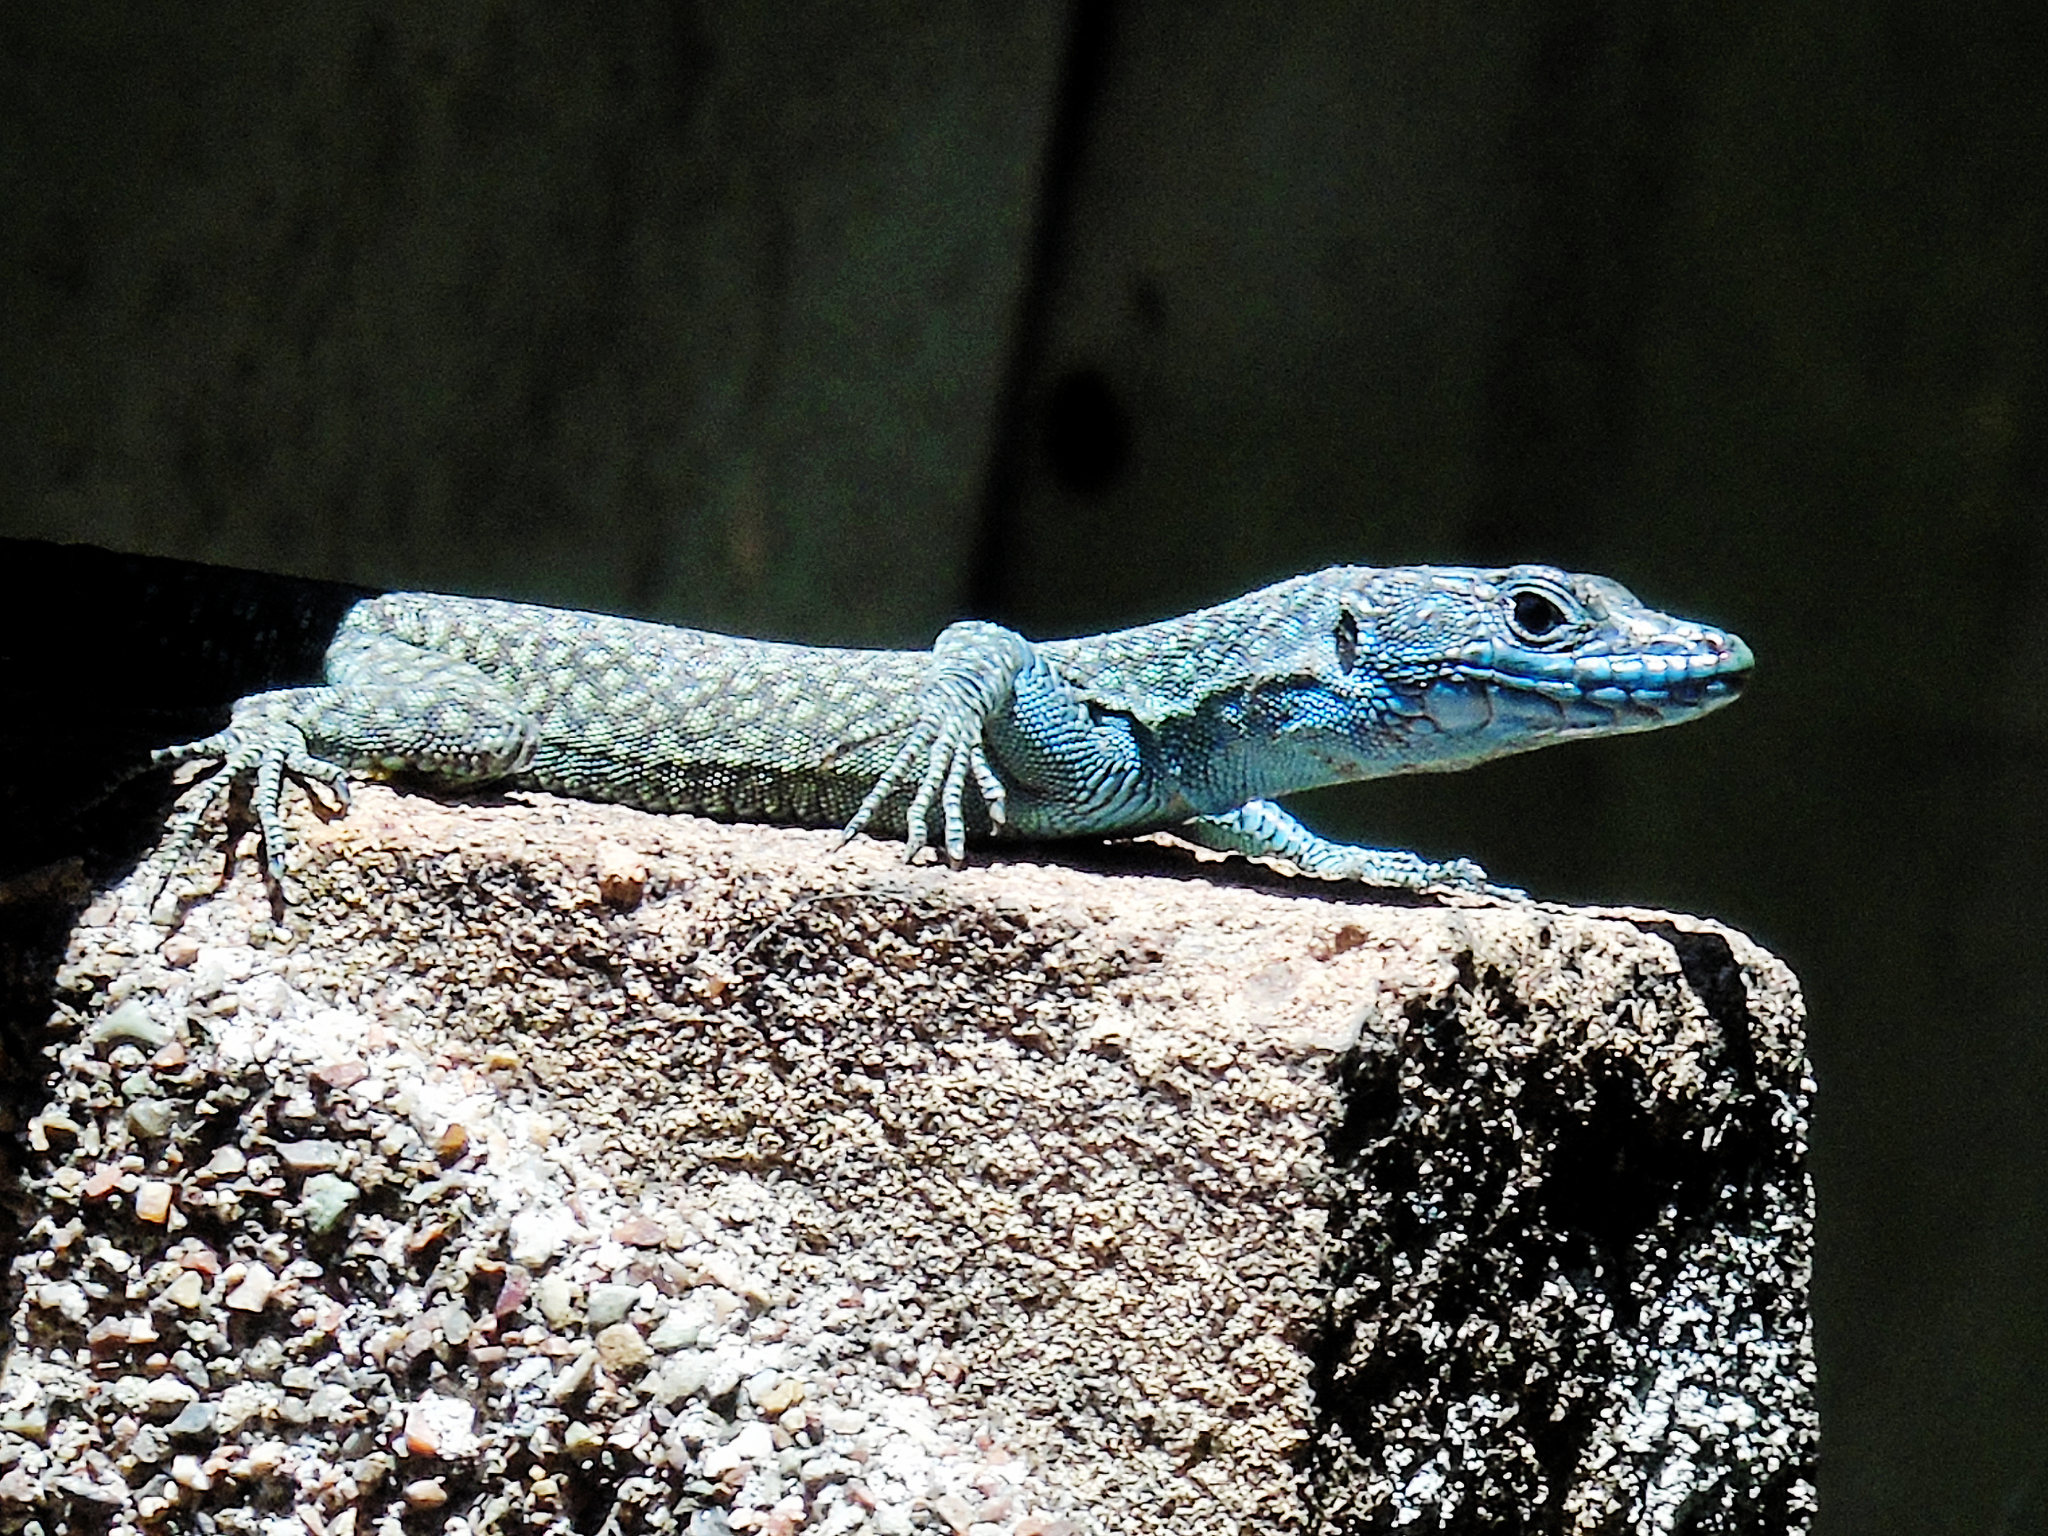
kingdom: Animalia
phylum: Chordata
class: Squamata
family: Lacertidae
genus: Dalmatolacerta
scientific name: Dalmatolacerta oxycephala
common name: Sharp-snouted rock lizard
